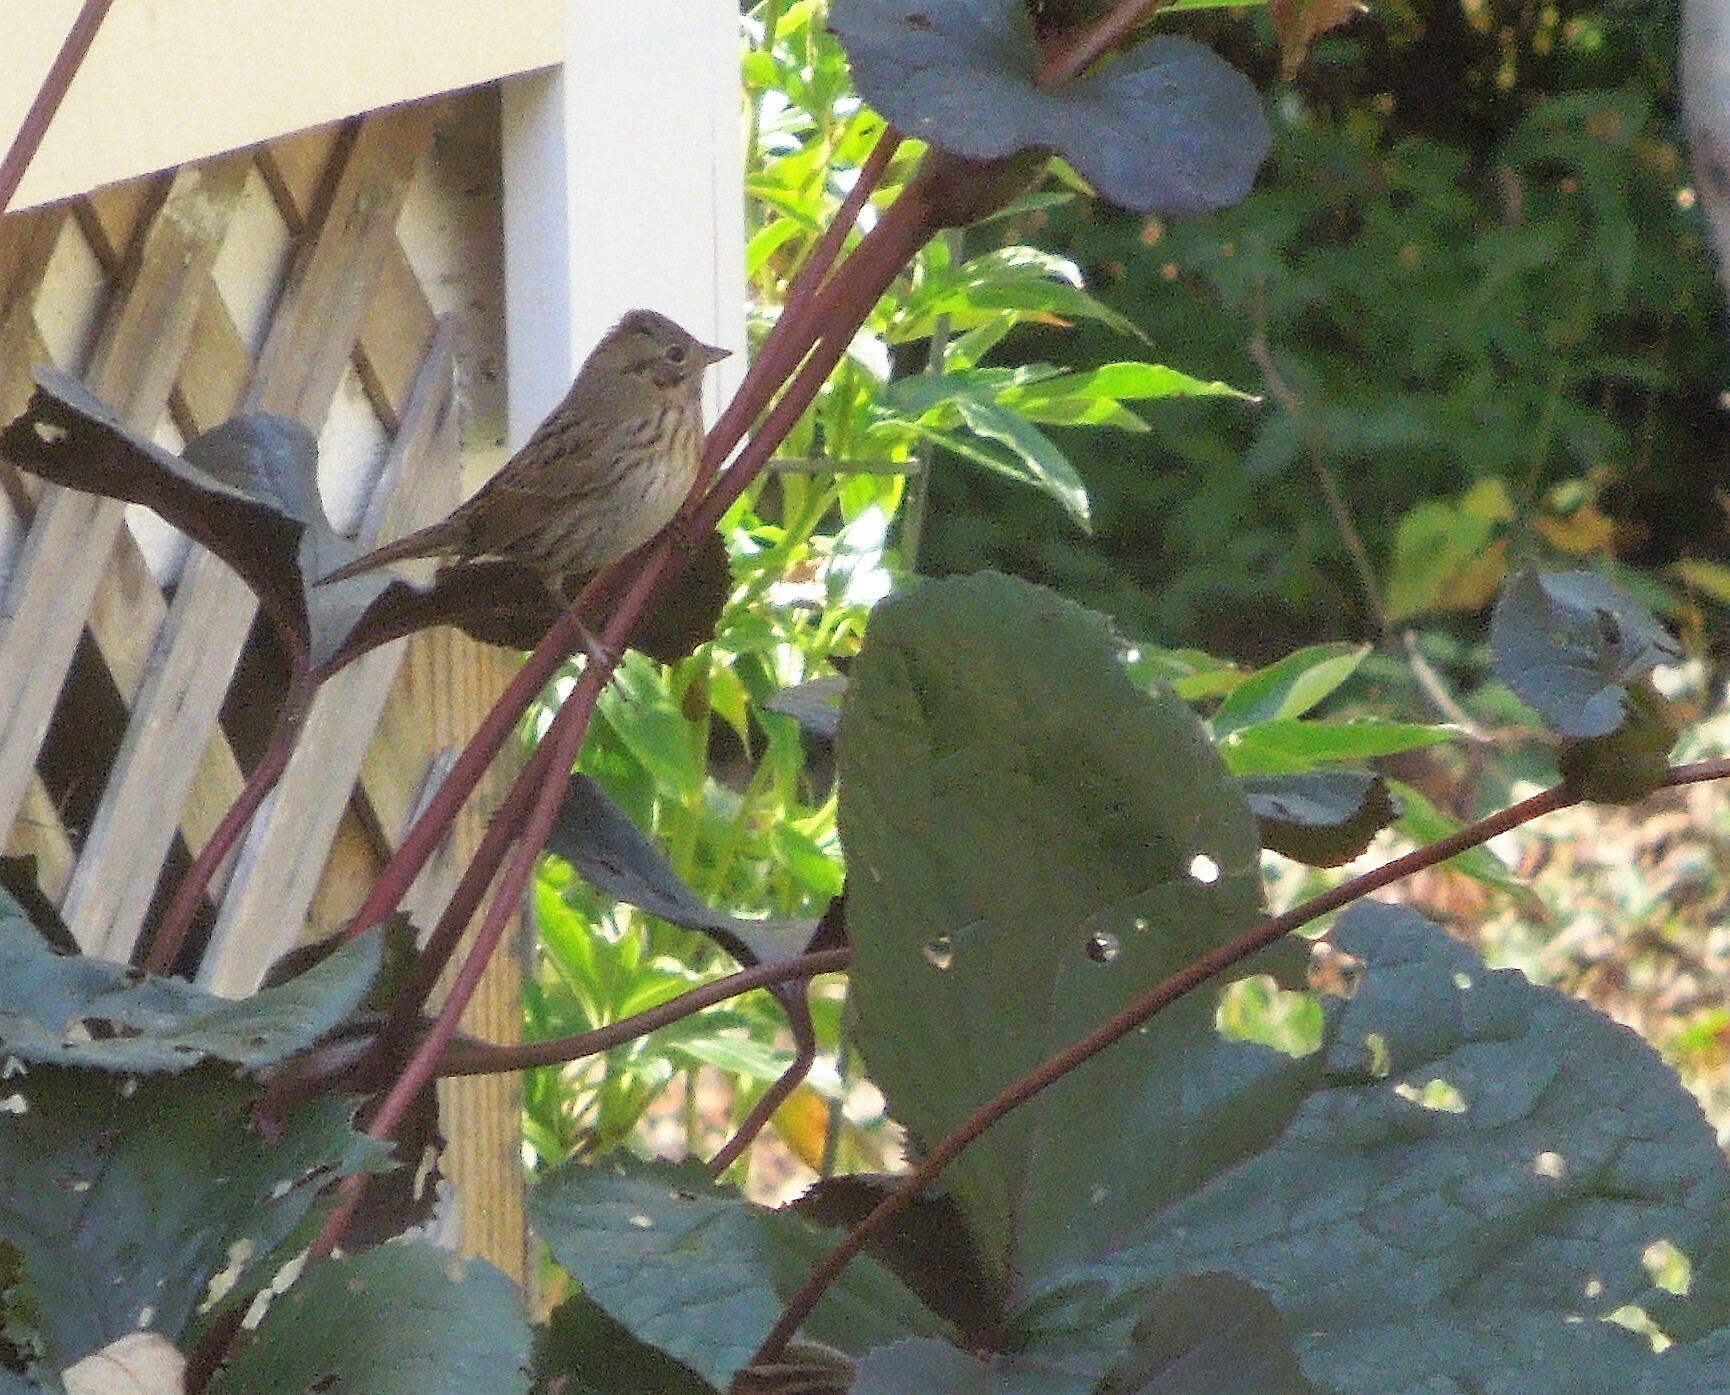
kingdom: Animalia
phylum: Chordata
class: Aves
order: Passeriformes
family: Passerellidae
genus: Melospiza
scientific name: Melospiza lincolnii
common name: Lincoln's sparrow
